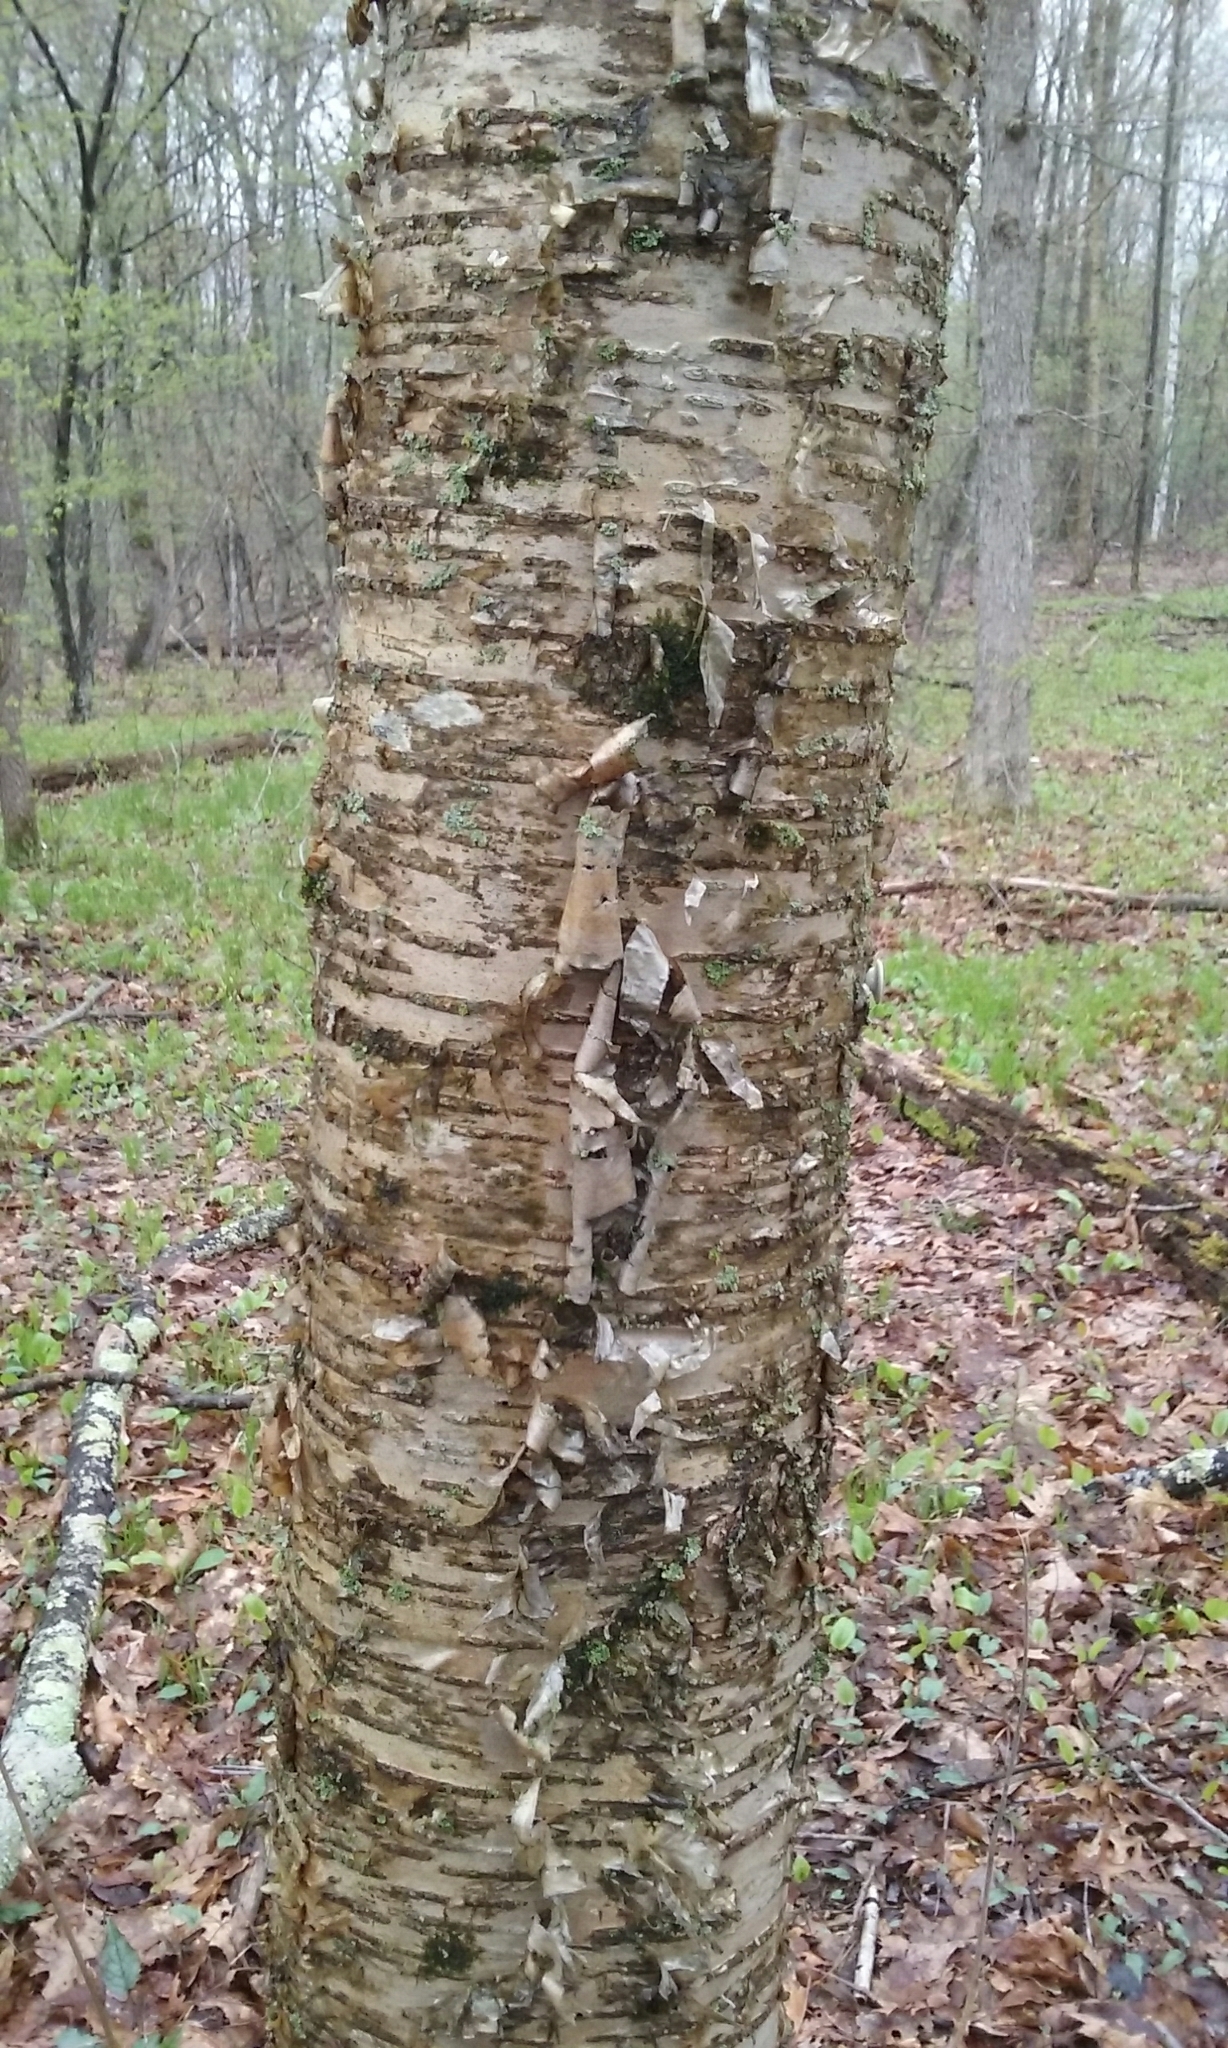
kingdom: Plantae
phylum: Tracheophyta
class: Magnoliopsida
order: Fagales
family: Betulaceae
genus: Betula
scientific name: Betula alleghaniensis
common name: Yellow birch
